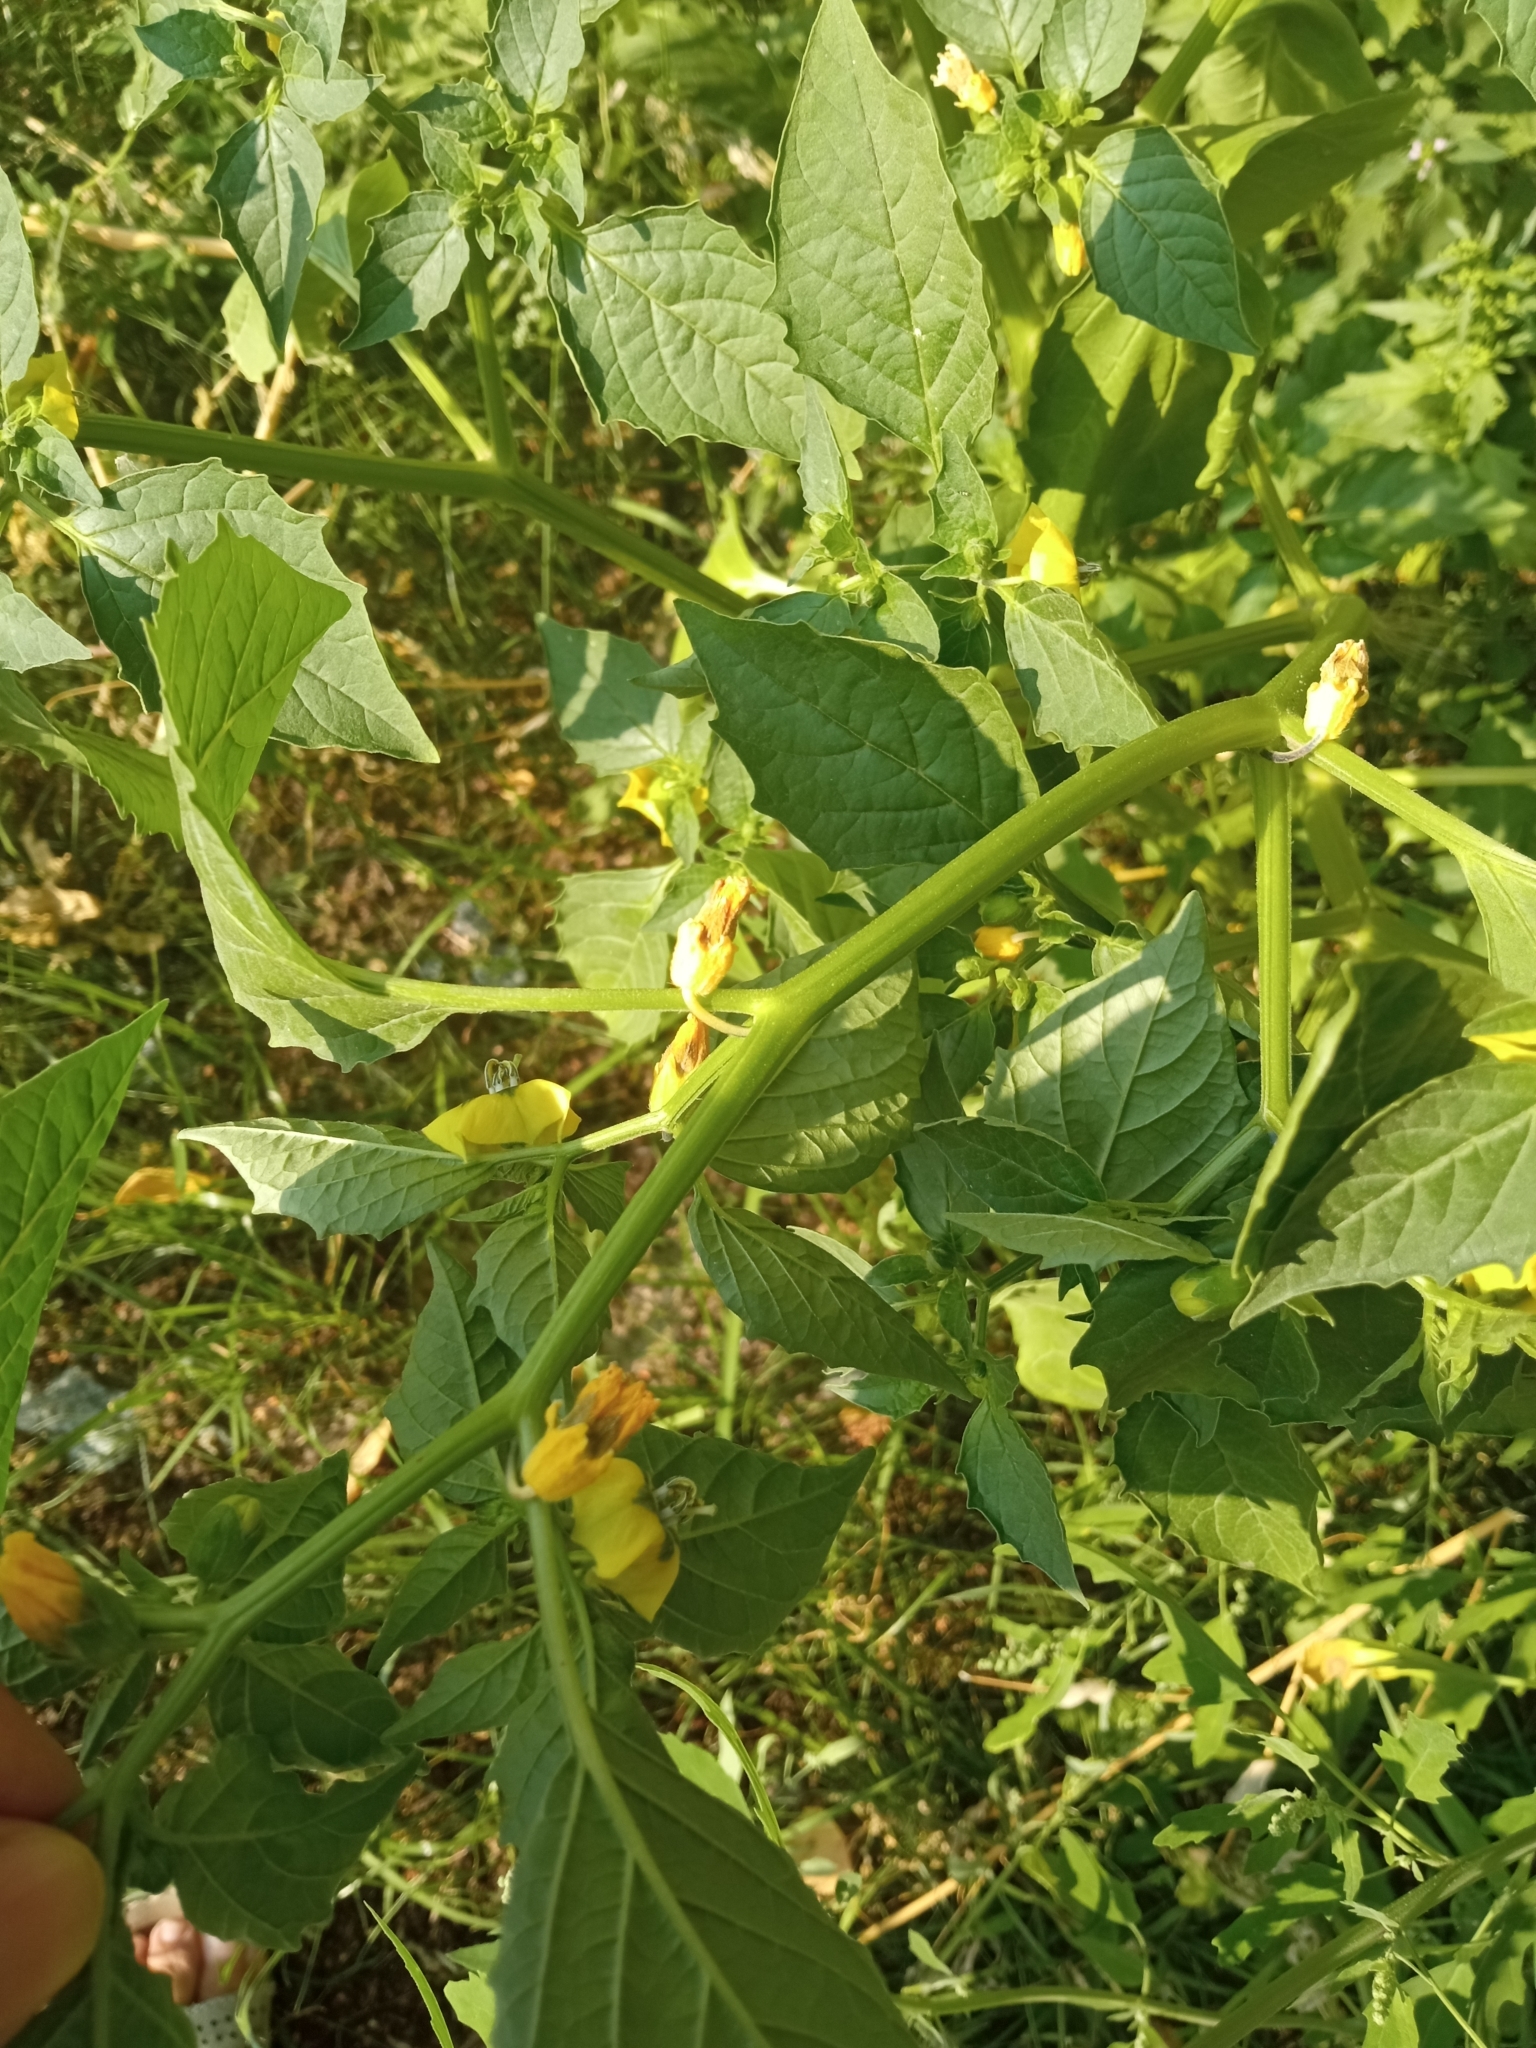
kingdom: Plantae
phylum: Tracheophyta
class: Magnoliopsida
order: Solanales
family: Solanaceae
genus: Physalis
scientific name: Physalis philadelphica
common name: Husk-tomato
